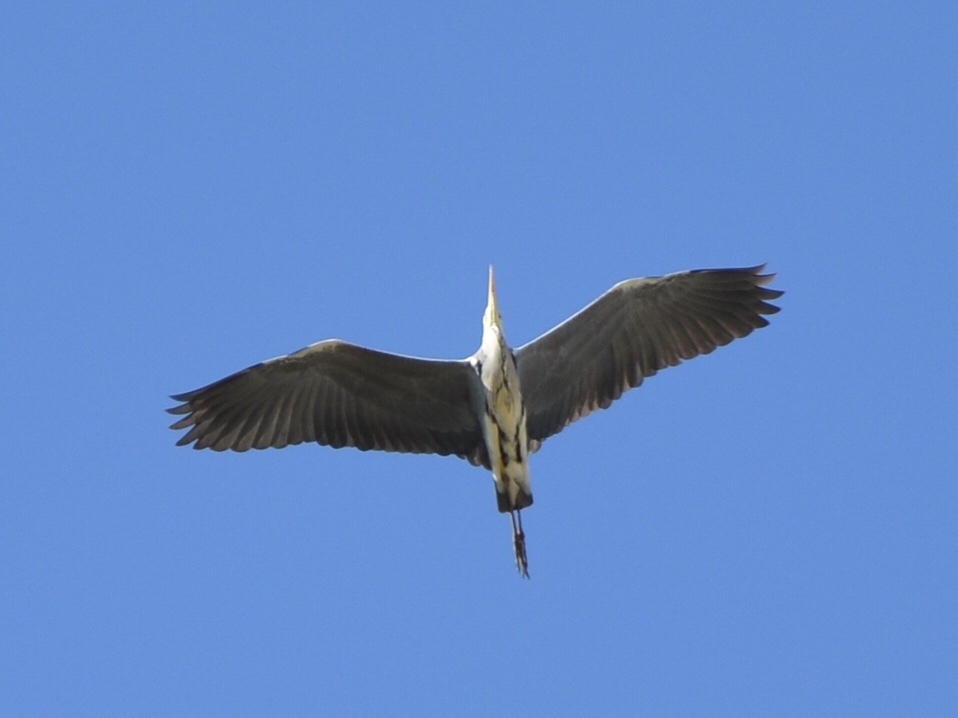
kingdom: Animalia
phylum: Chordata
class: Aves
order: Pelecaniformes
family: Ardeidae
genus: Ardea
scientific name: Ardea cinerea
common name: Grey heron
